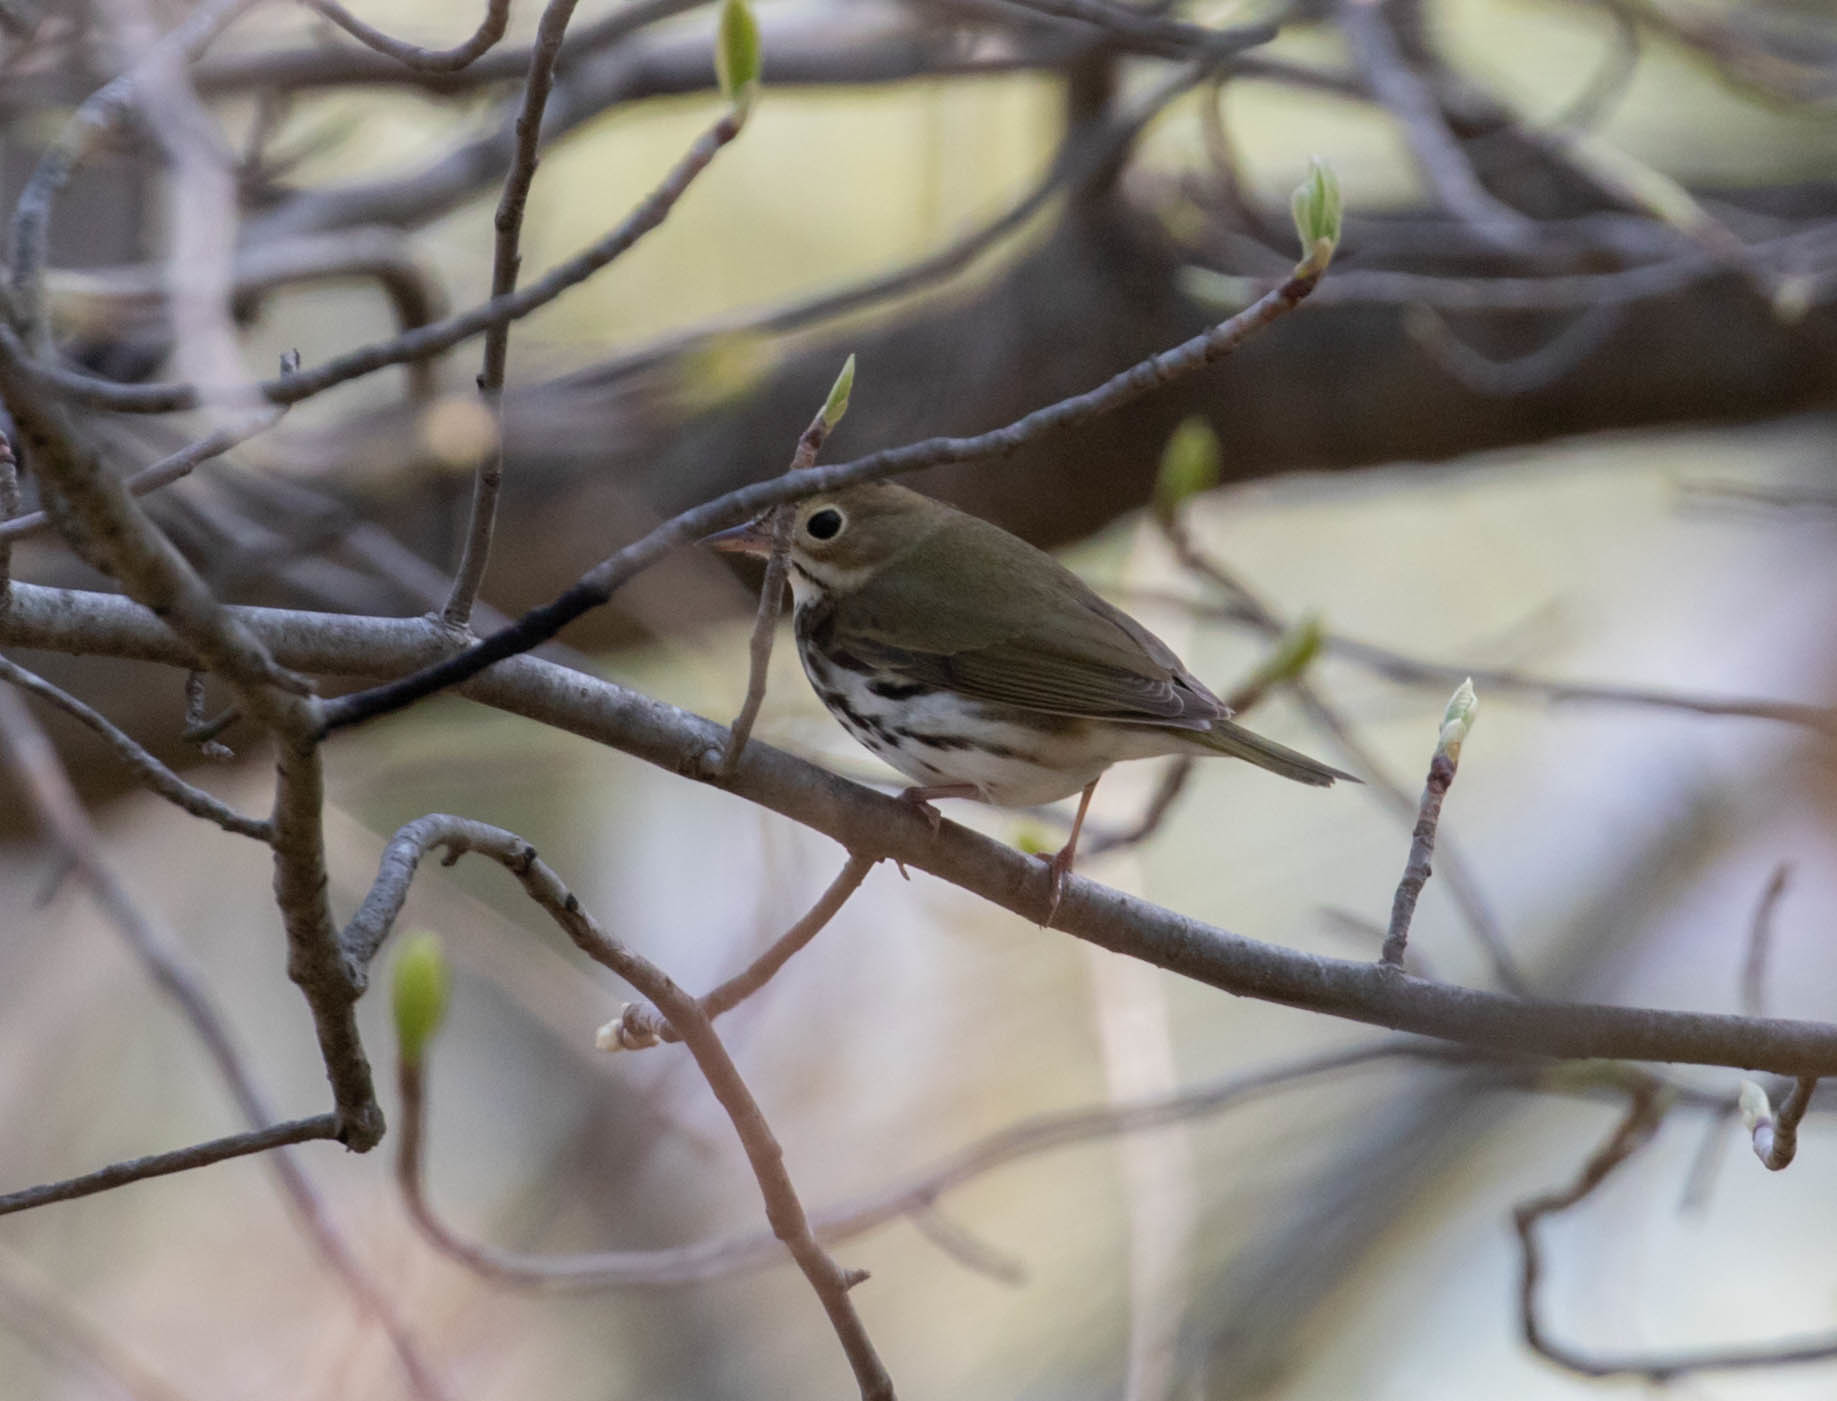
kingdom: Animalia
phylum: Chordata
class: Aves
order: Passeriformes
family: Parulidae
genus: Seiurus
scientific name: Seiurus aurocapilla
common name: Ovenbird
